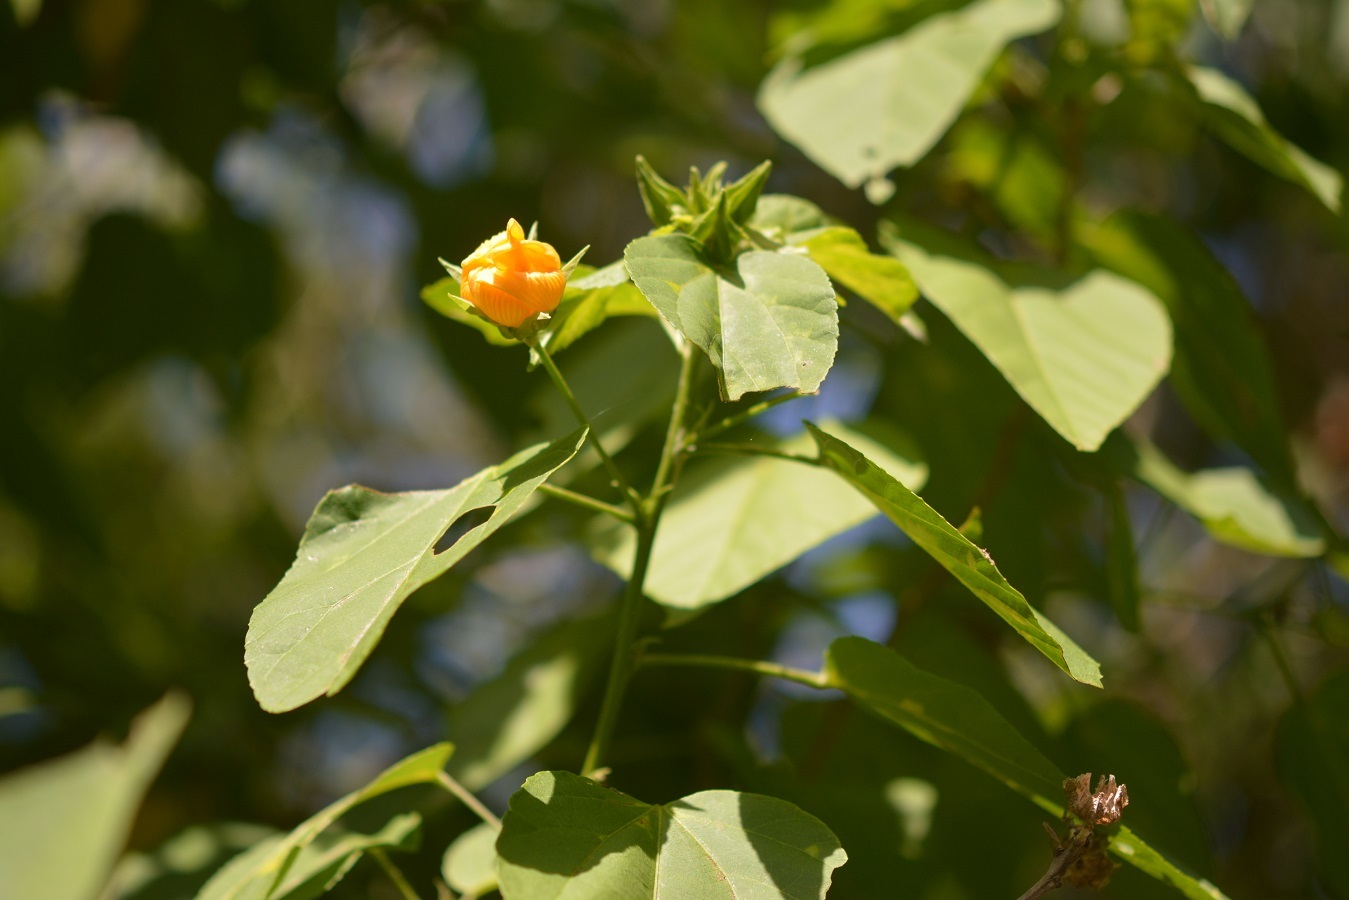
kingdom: Plantae
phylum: Tracheophyta
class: Magnoliopsida
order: Malvales
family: Malvaceae
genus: Dendrosida
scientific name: Dendrosida sharpiana
